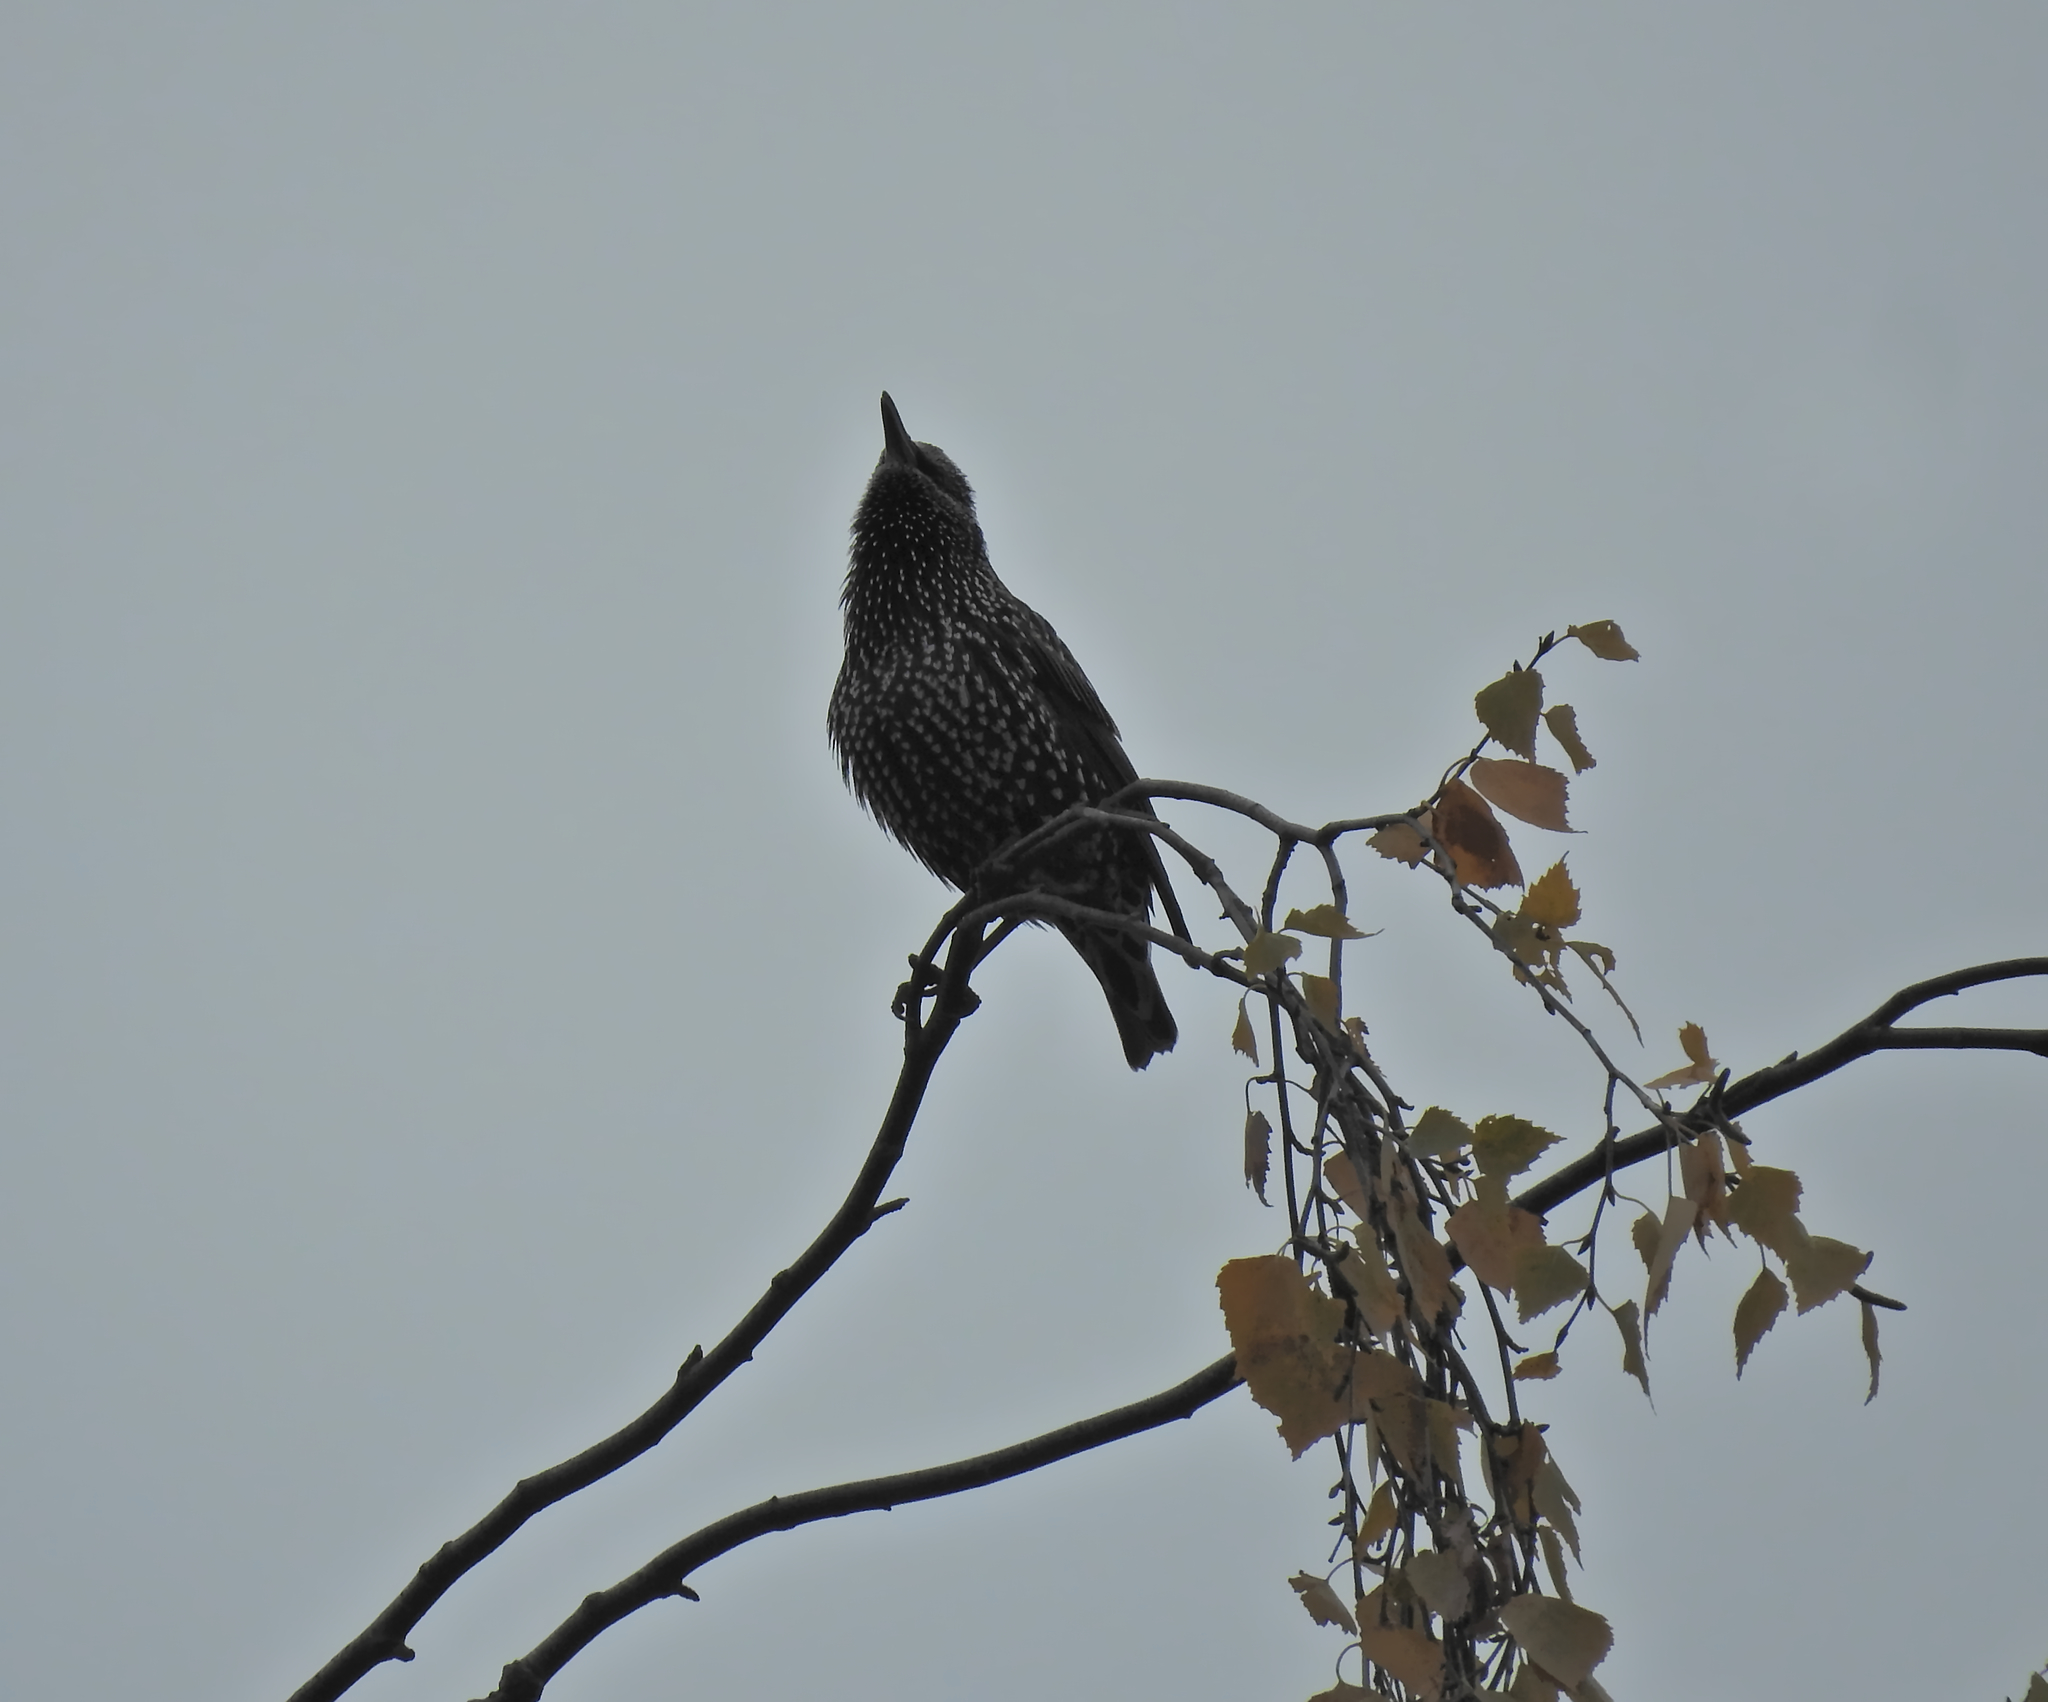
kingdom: Animalia
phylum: Chordata
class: Aves
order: Passeriformes
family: Sturnidae
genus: Sturnus
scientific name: Sturnus vulgaris
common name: Common starling
